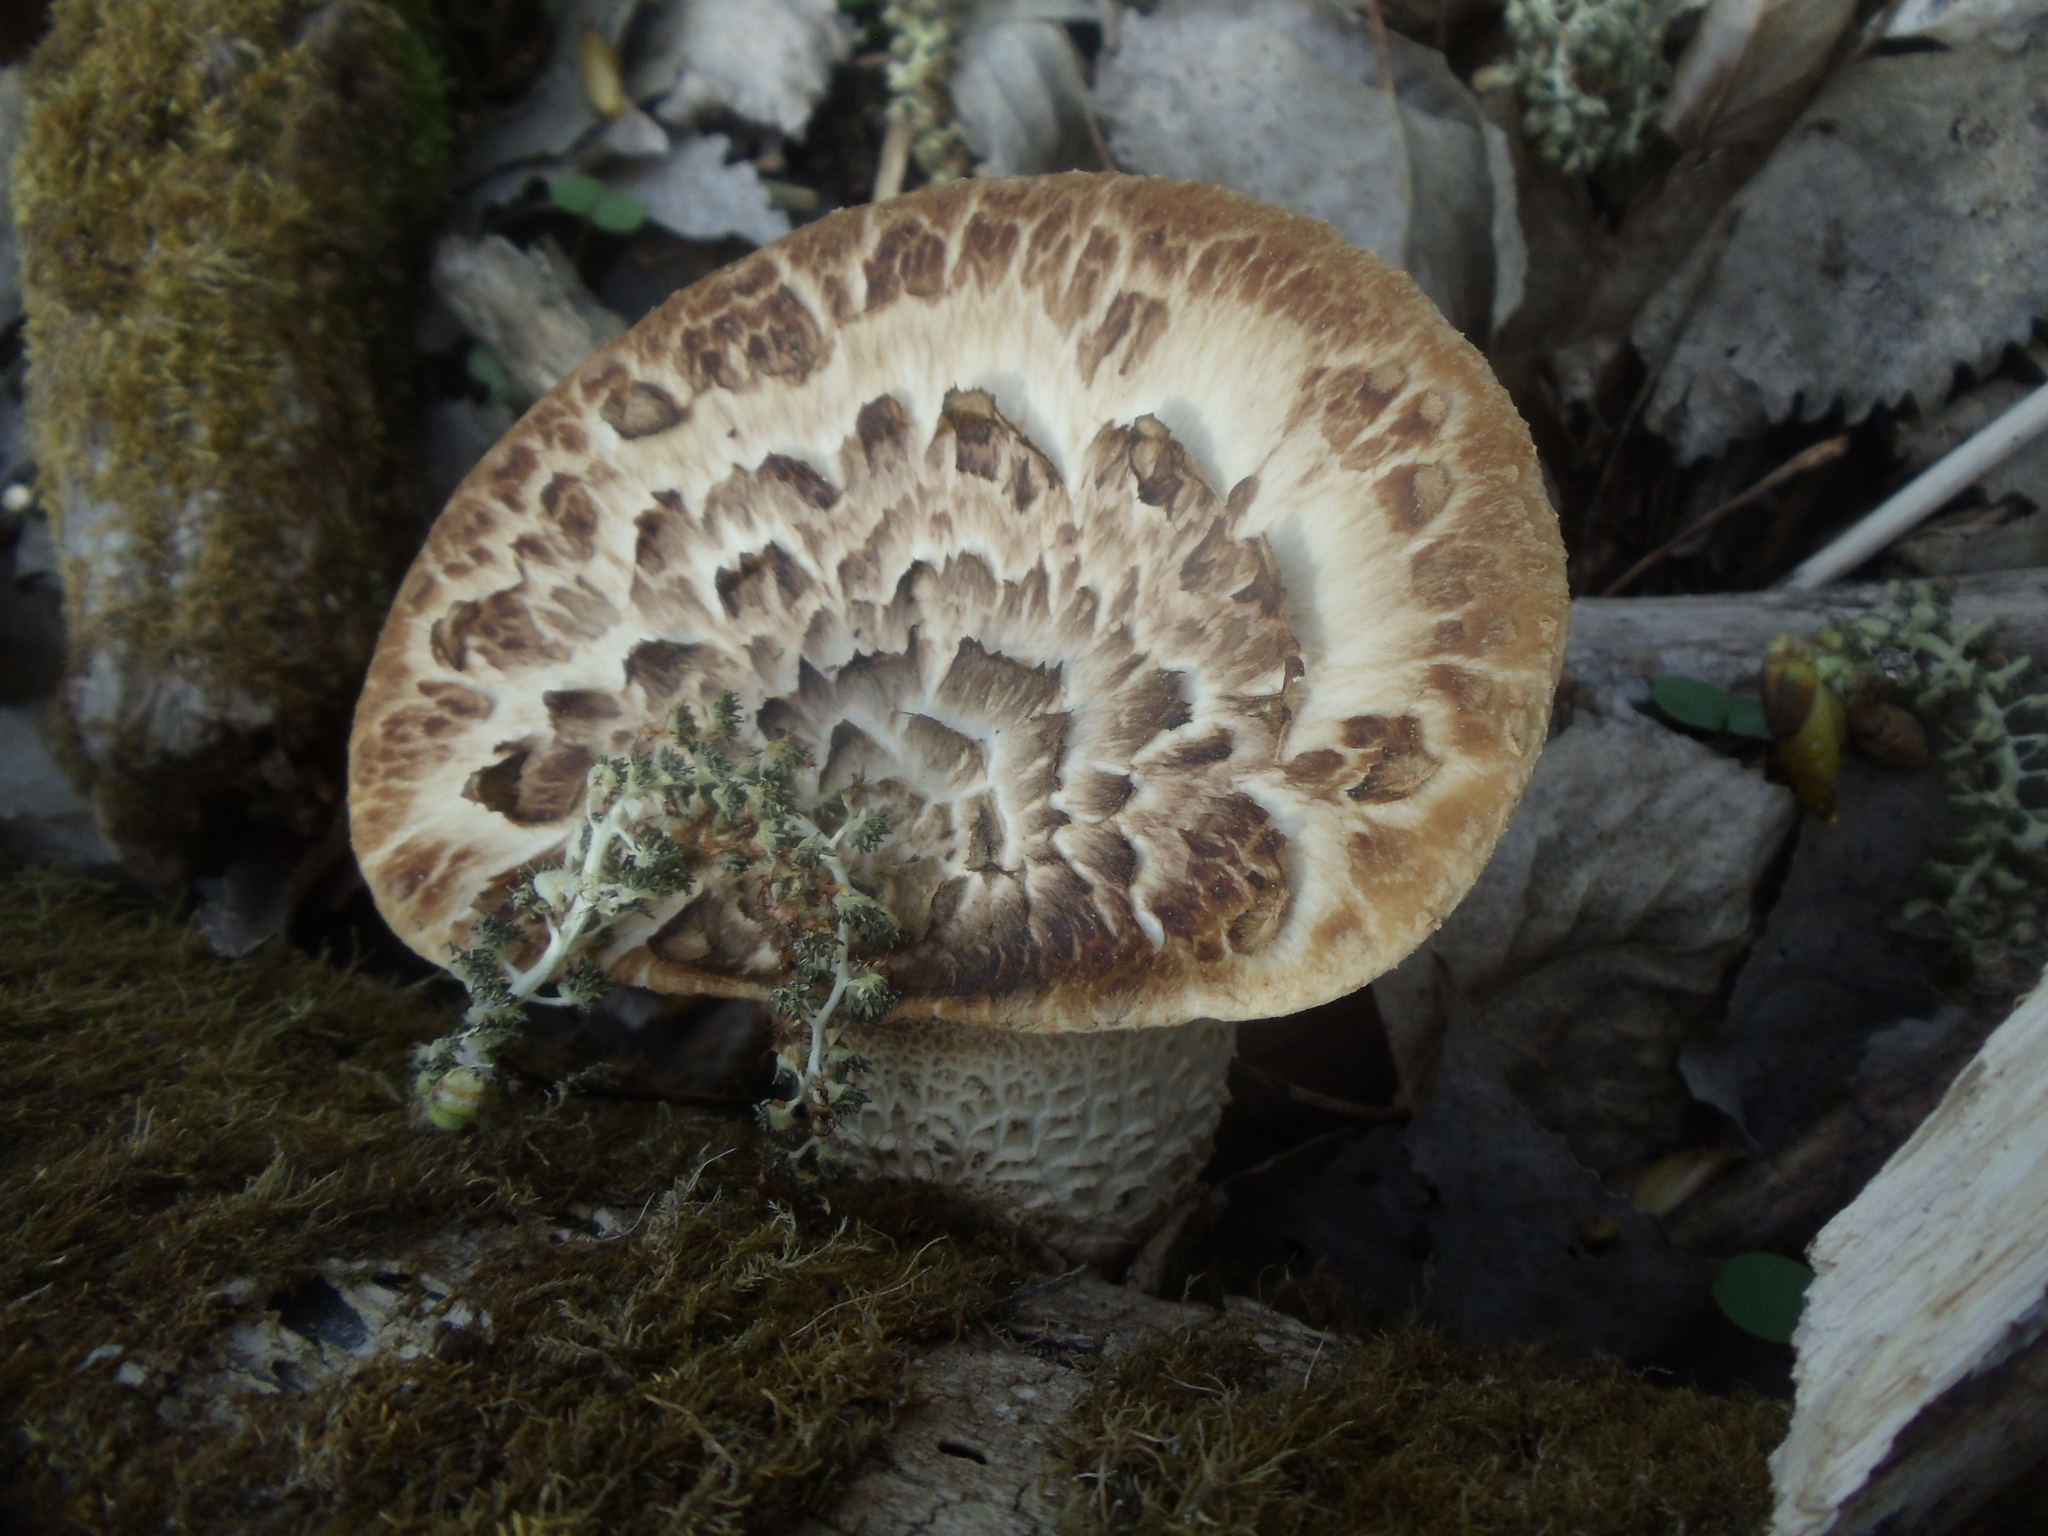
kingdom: Fungi
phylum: Basidiomycota
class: Agaricomycetes
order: Polyporales
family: Polyporaceae
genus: Cerioporus
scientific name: Cerioporus squamosus
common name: Dryad's saddle
